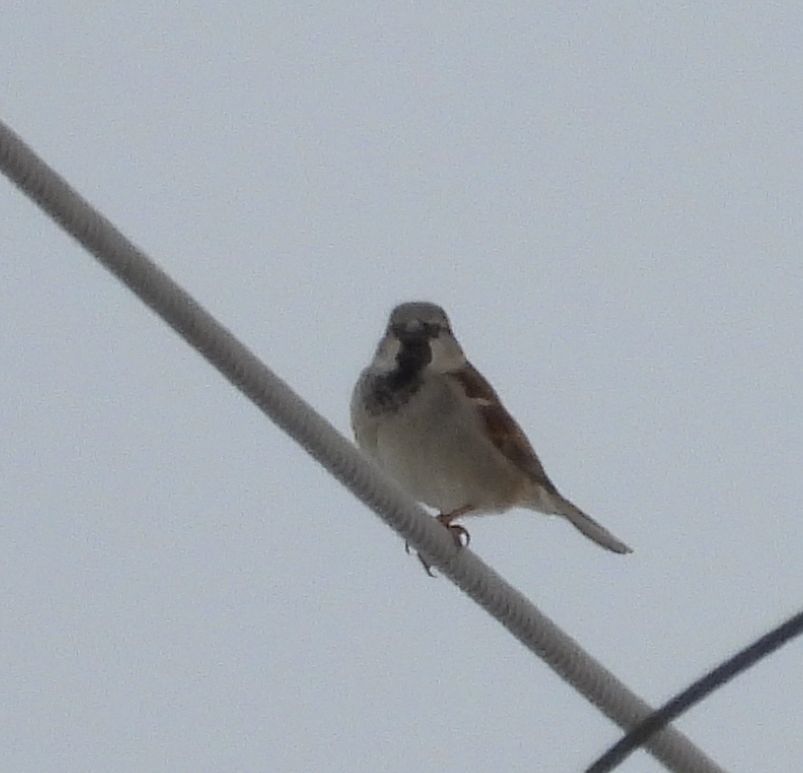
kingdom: Animalia
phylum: Chordata
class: Aves
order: Passeriformes
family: Passeridae
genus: Passer
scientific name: Passer domesticus
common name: House sparrow
